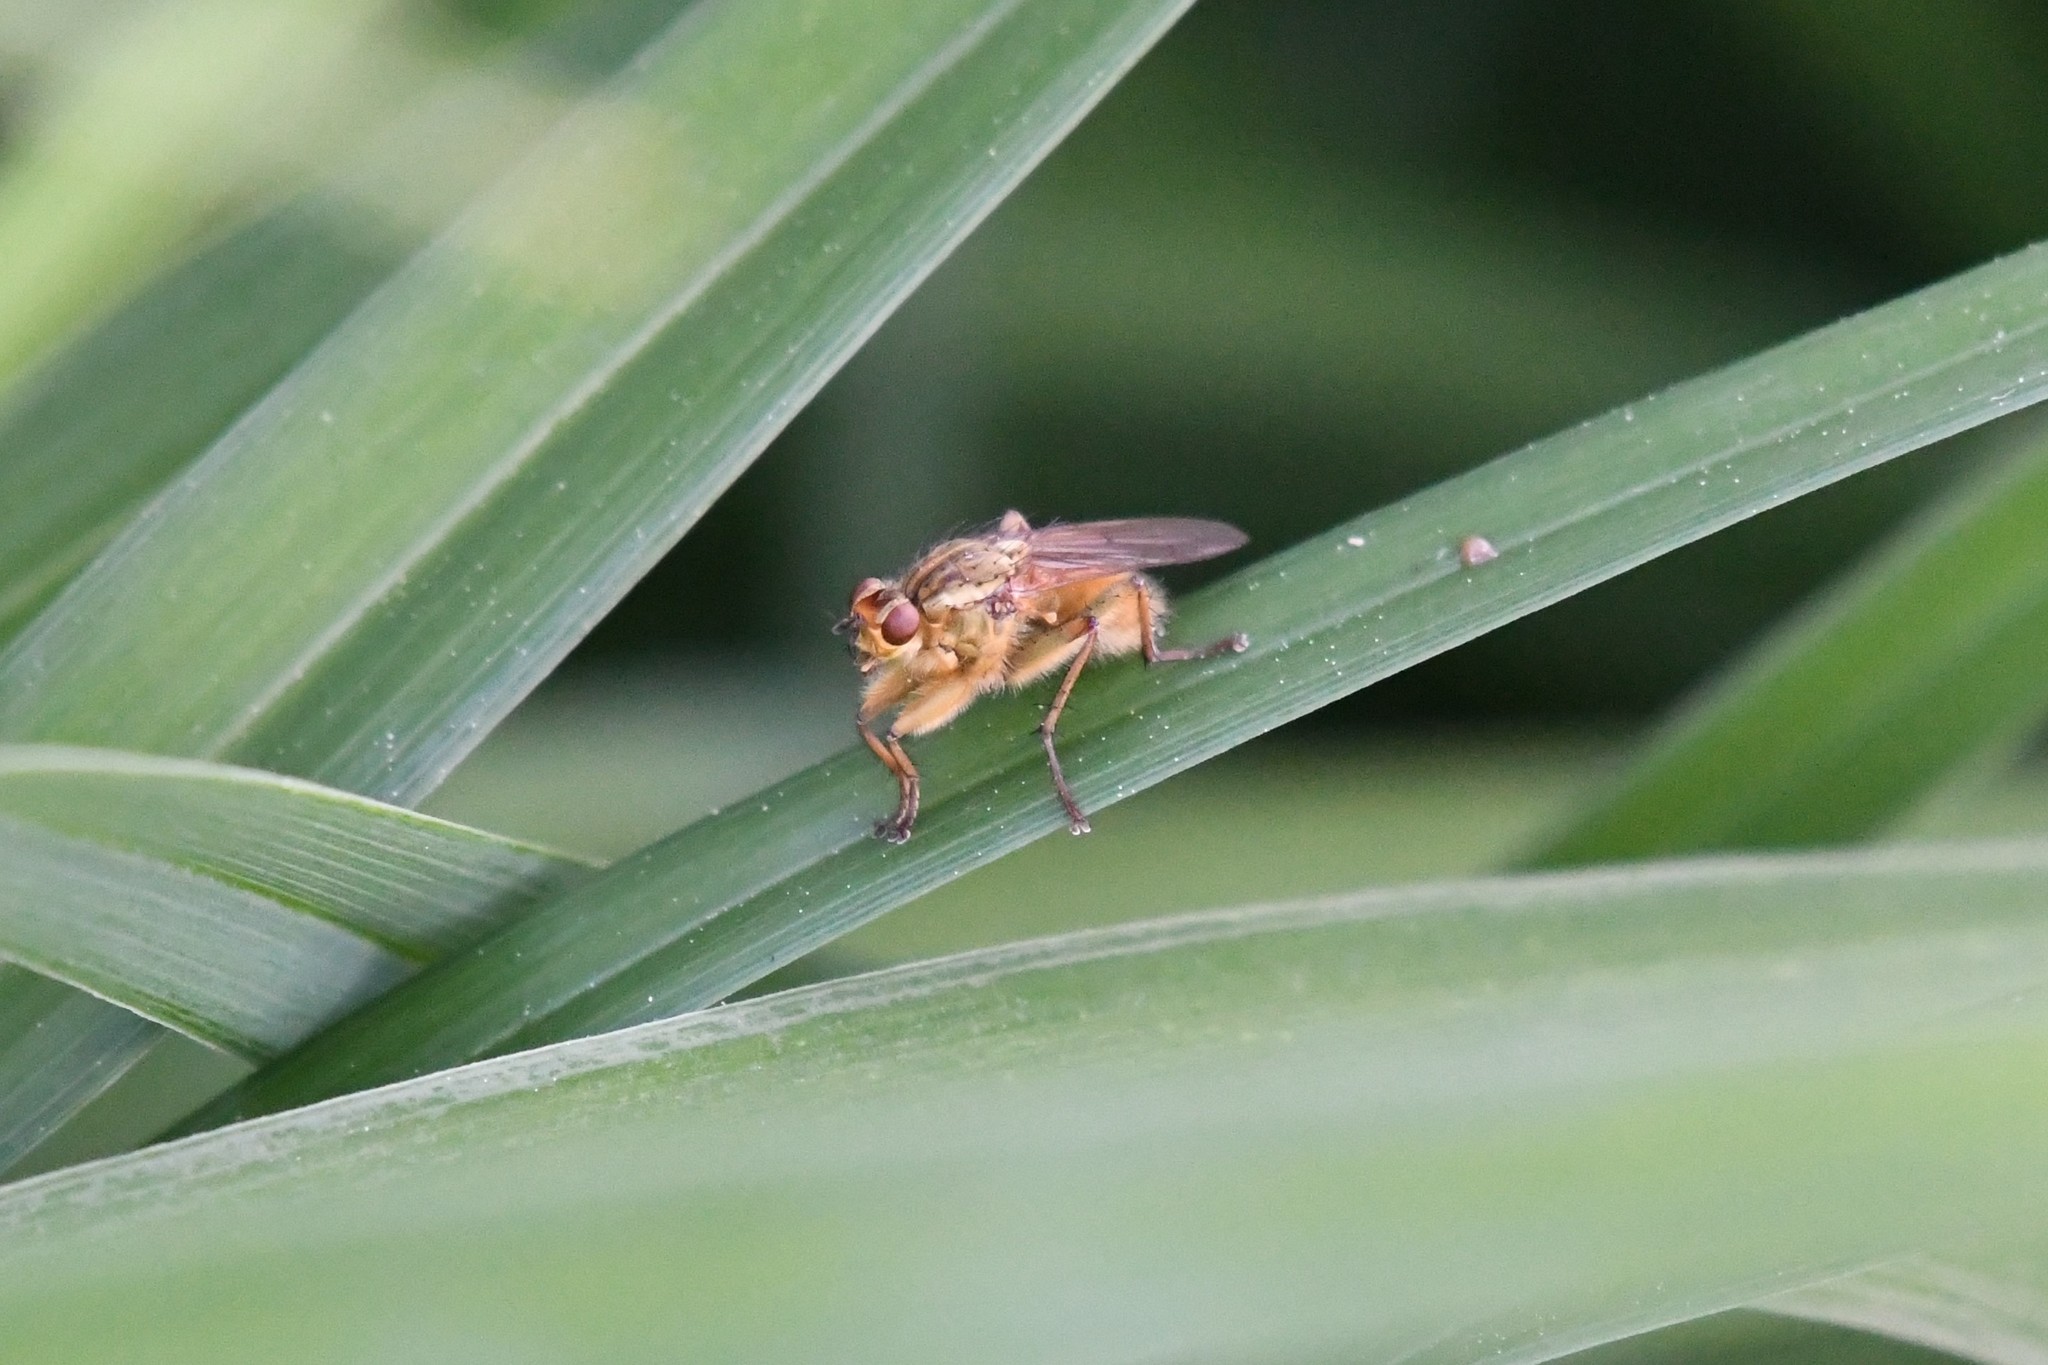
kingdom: Animalia
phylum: Arthropoda
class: Insecta
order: Diptera
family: Scathophagidae
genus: Scathophaga
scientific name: Scathophaga stercoraria
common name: Yellow dung fly
